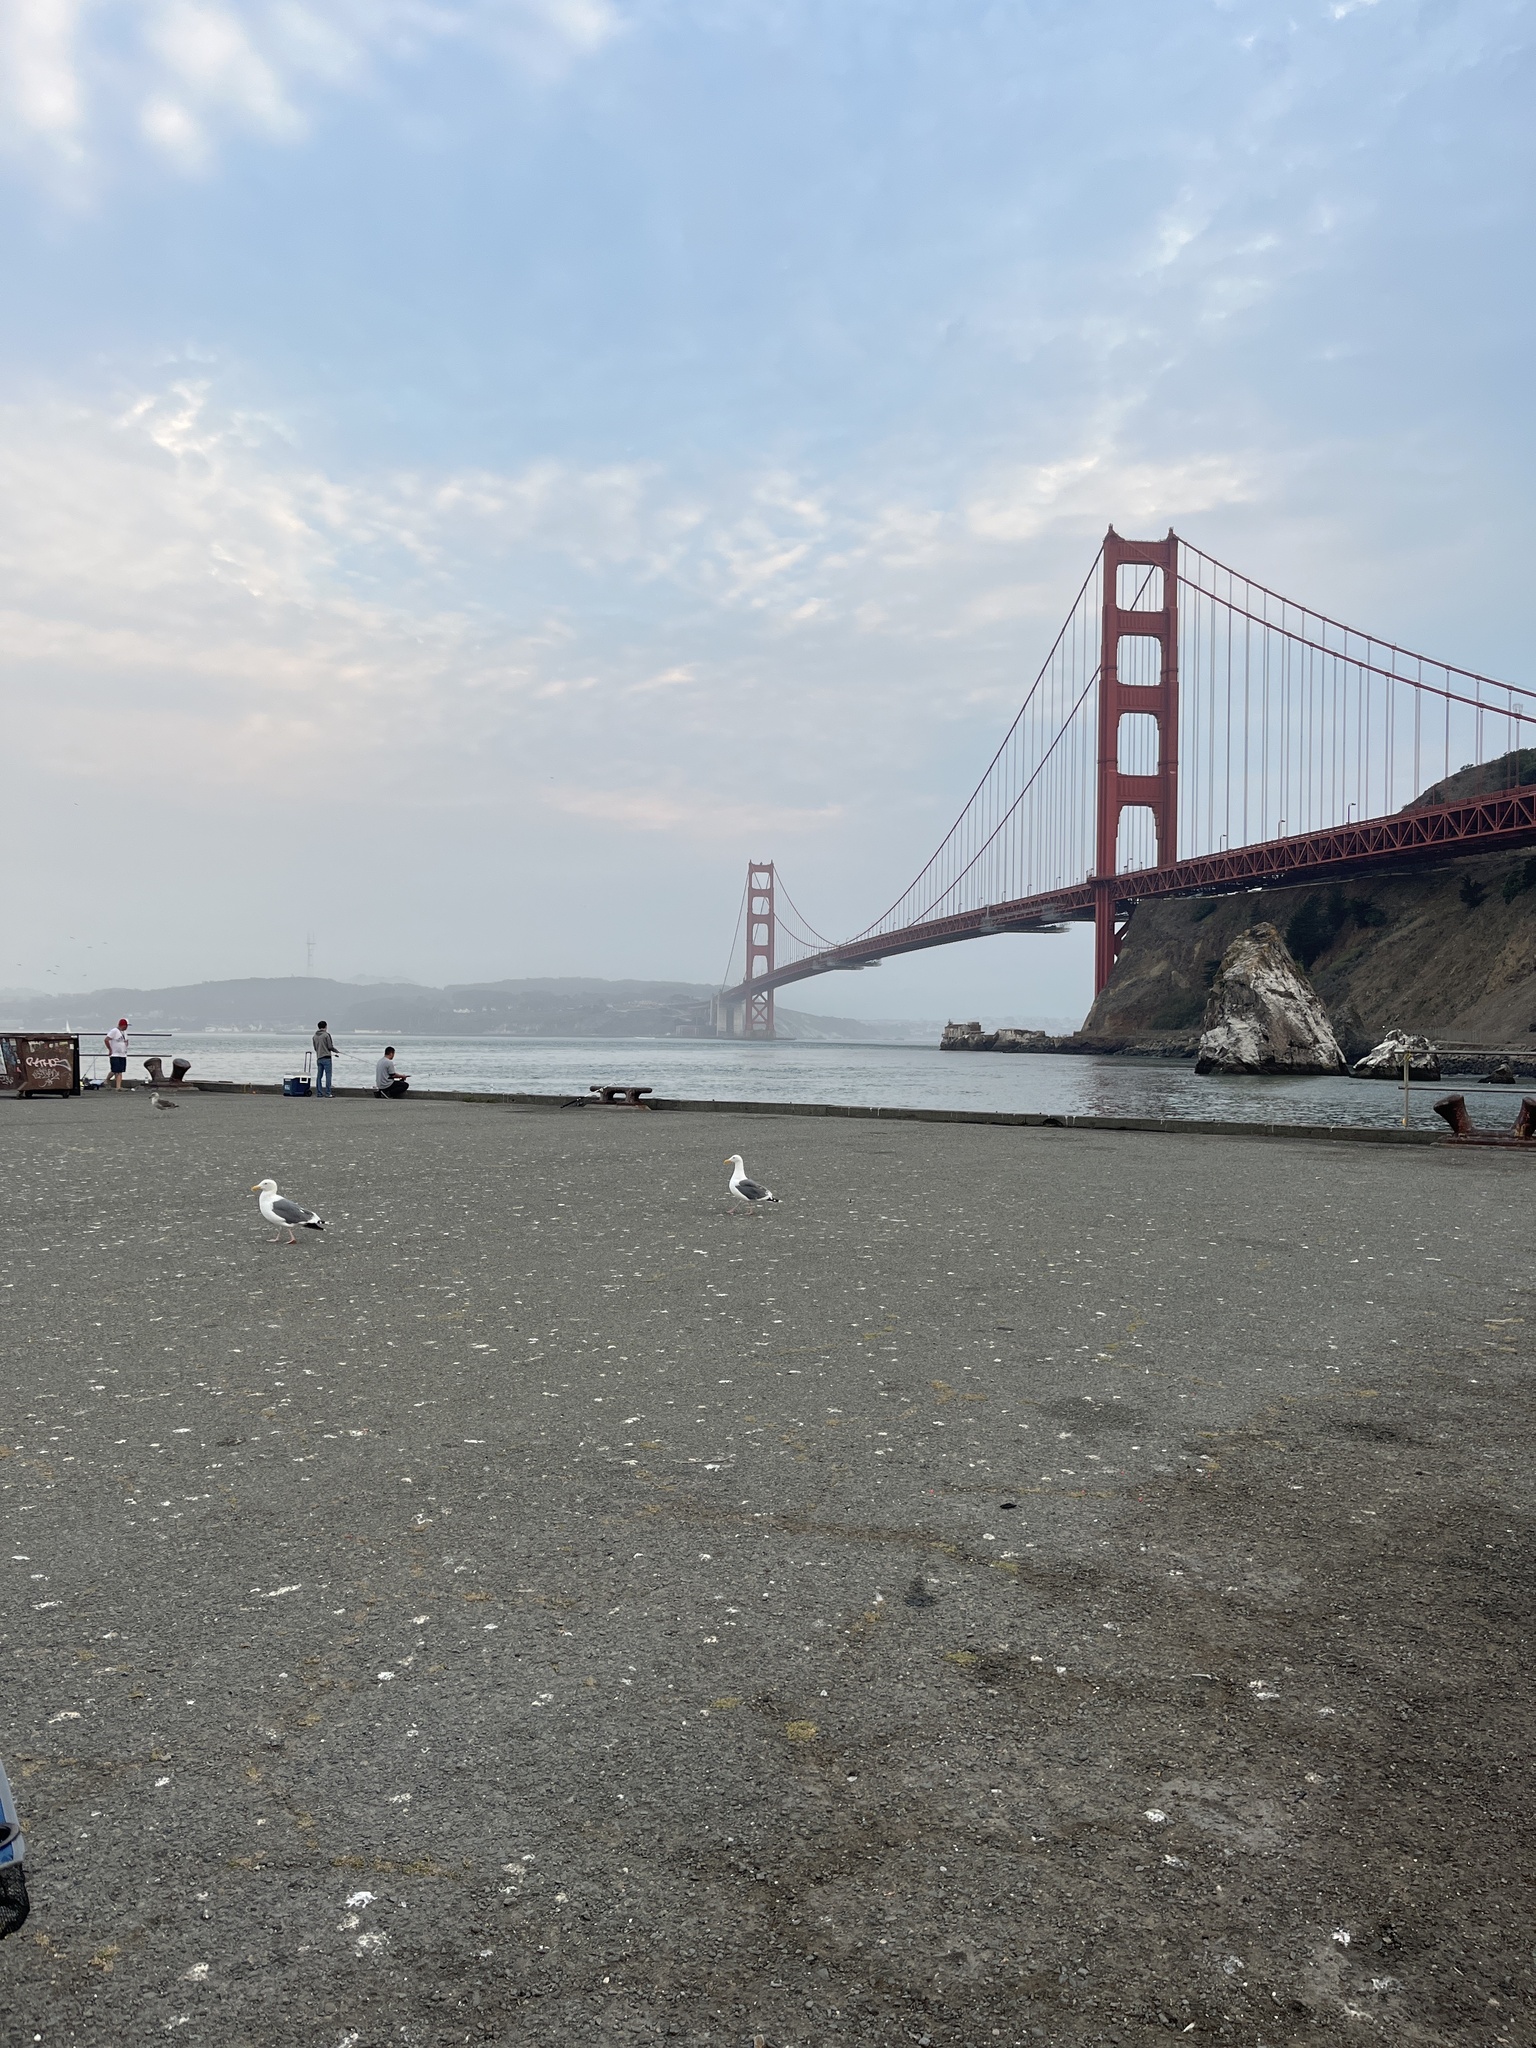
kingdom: Animalia
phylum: Chordata
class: Aves
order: Charadriiformes
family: Laridae
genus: Larus
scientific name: Larus occidentalis
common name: Western gull
